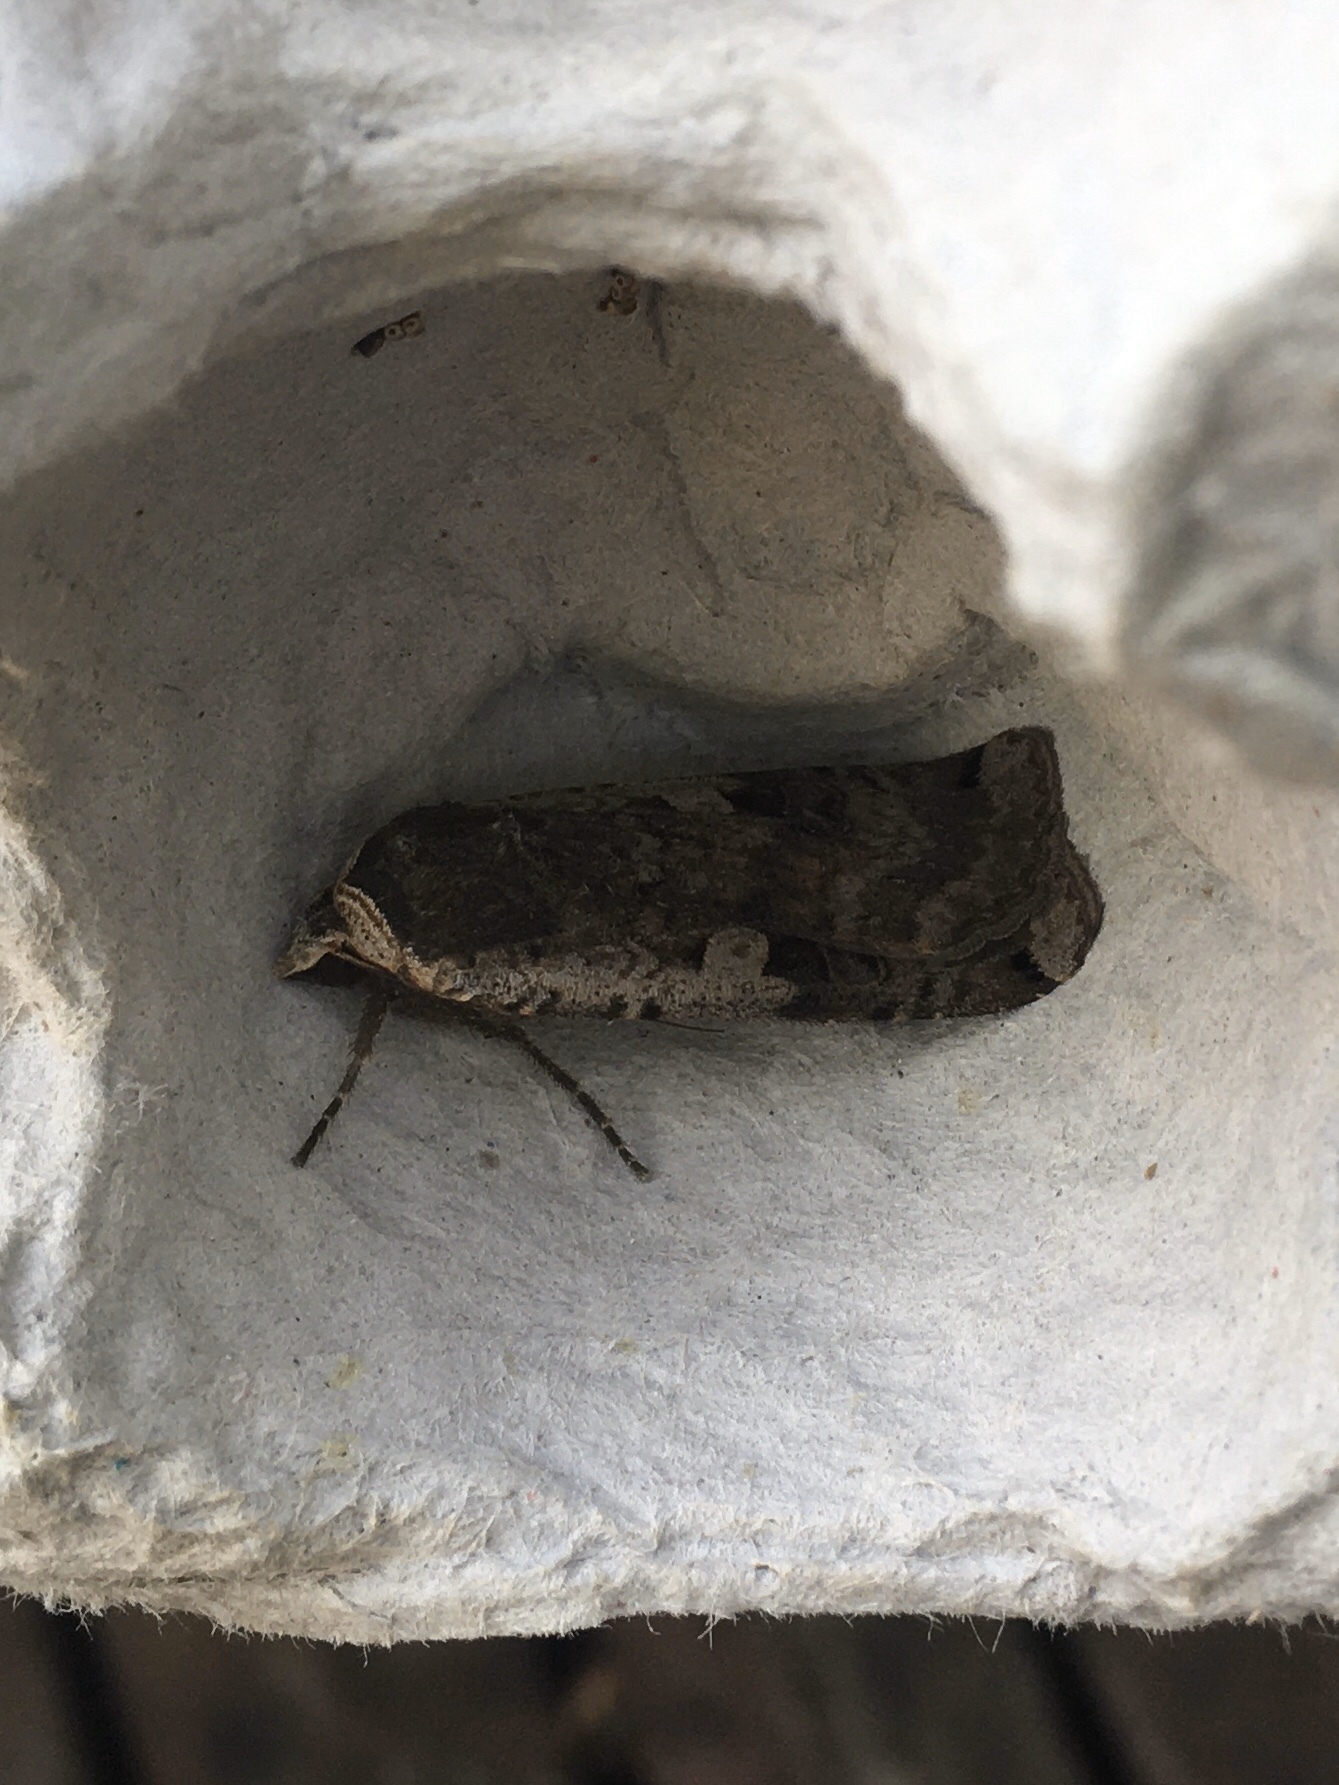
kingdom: Animalia
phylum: Arthropoda
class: Insecta
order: Lepidoptera
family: Noctuidae
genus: Noctua
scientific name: Noctua pronuba
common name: Large yellow underwing
